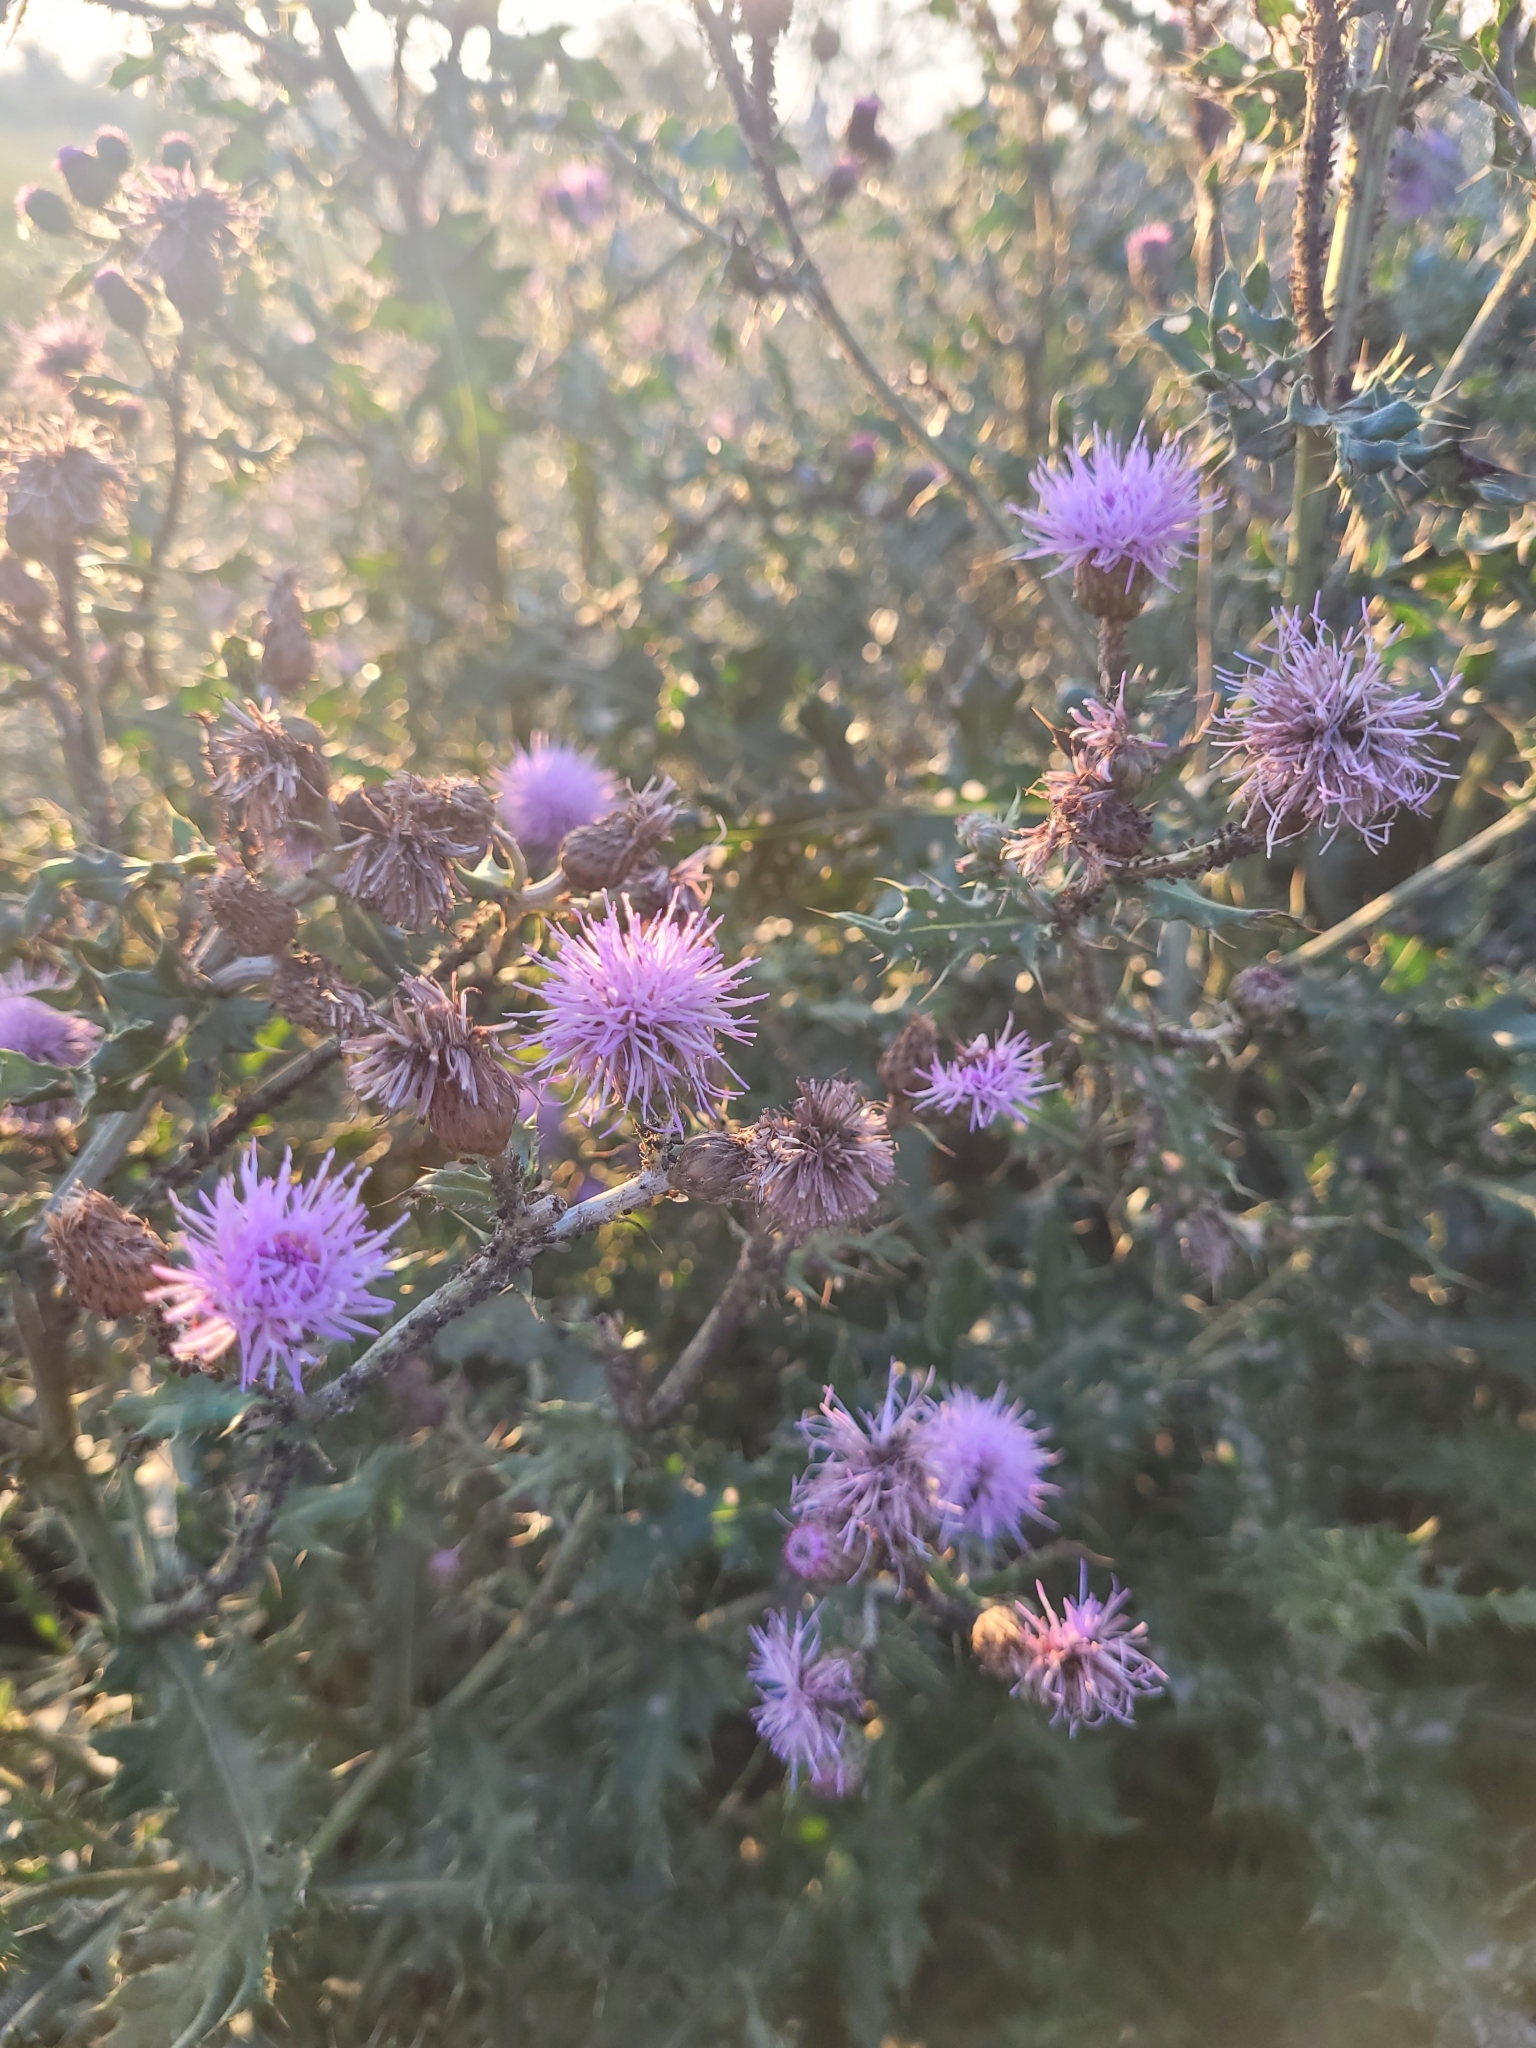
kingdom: Plantae
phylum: Tracheophyta
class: Magnoliopsida
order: Asterales
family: Asteraceae
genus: Cirsium
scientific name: Cirsium arvense
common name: Creeping thistle
